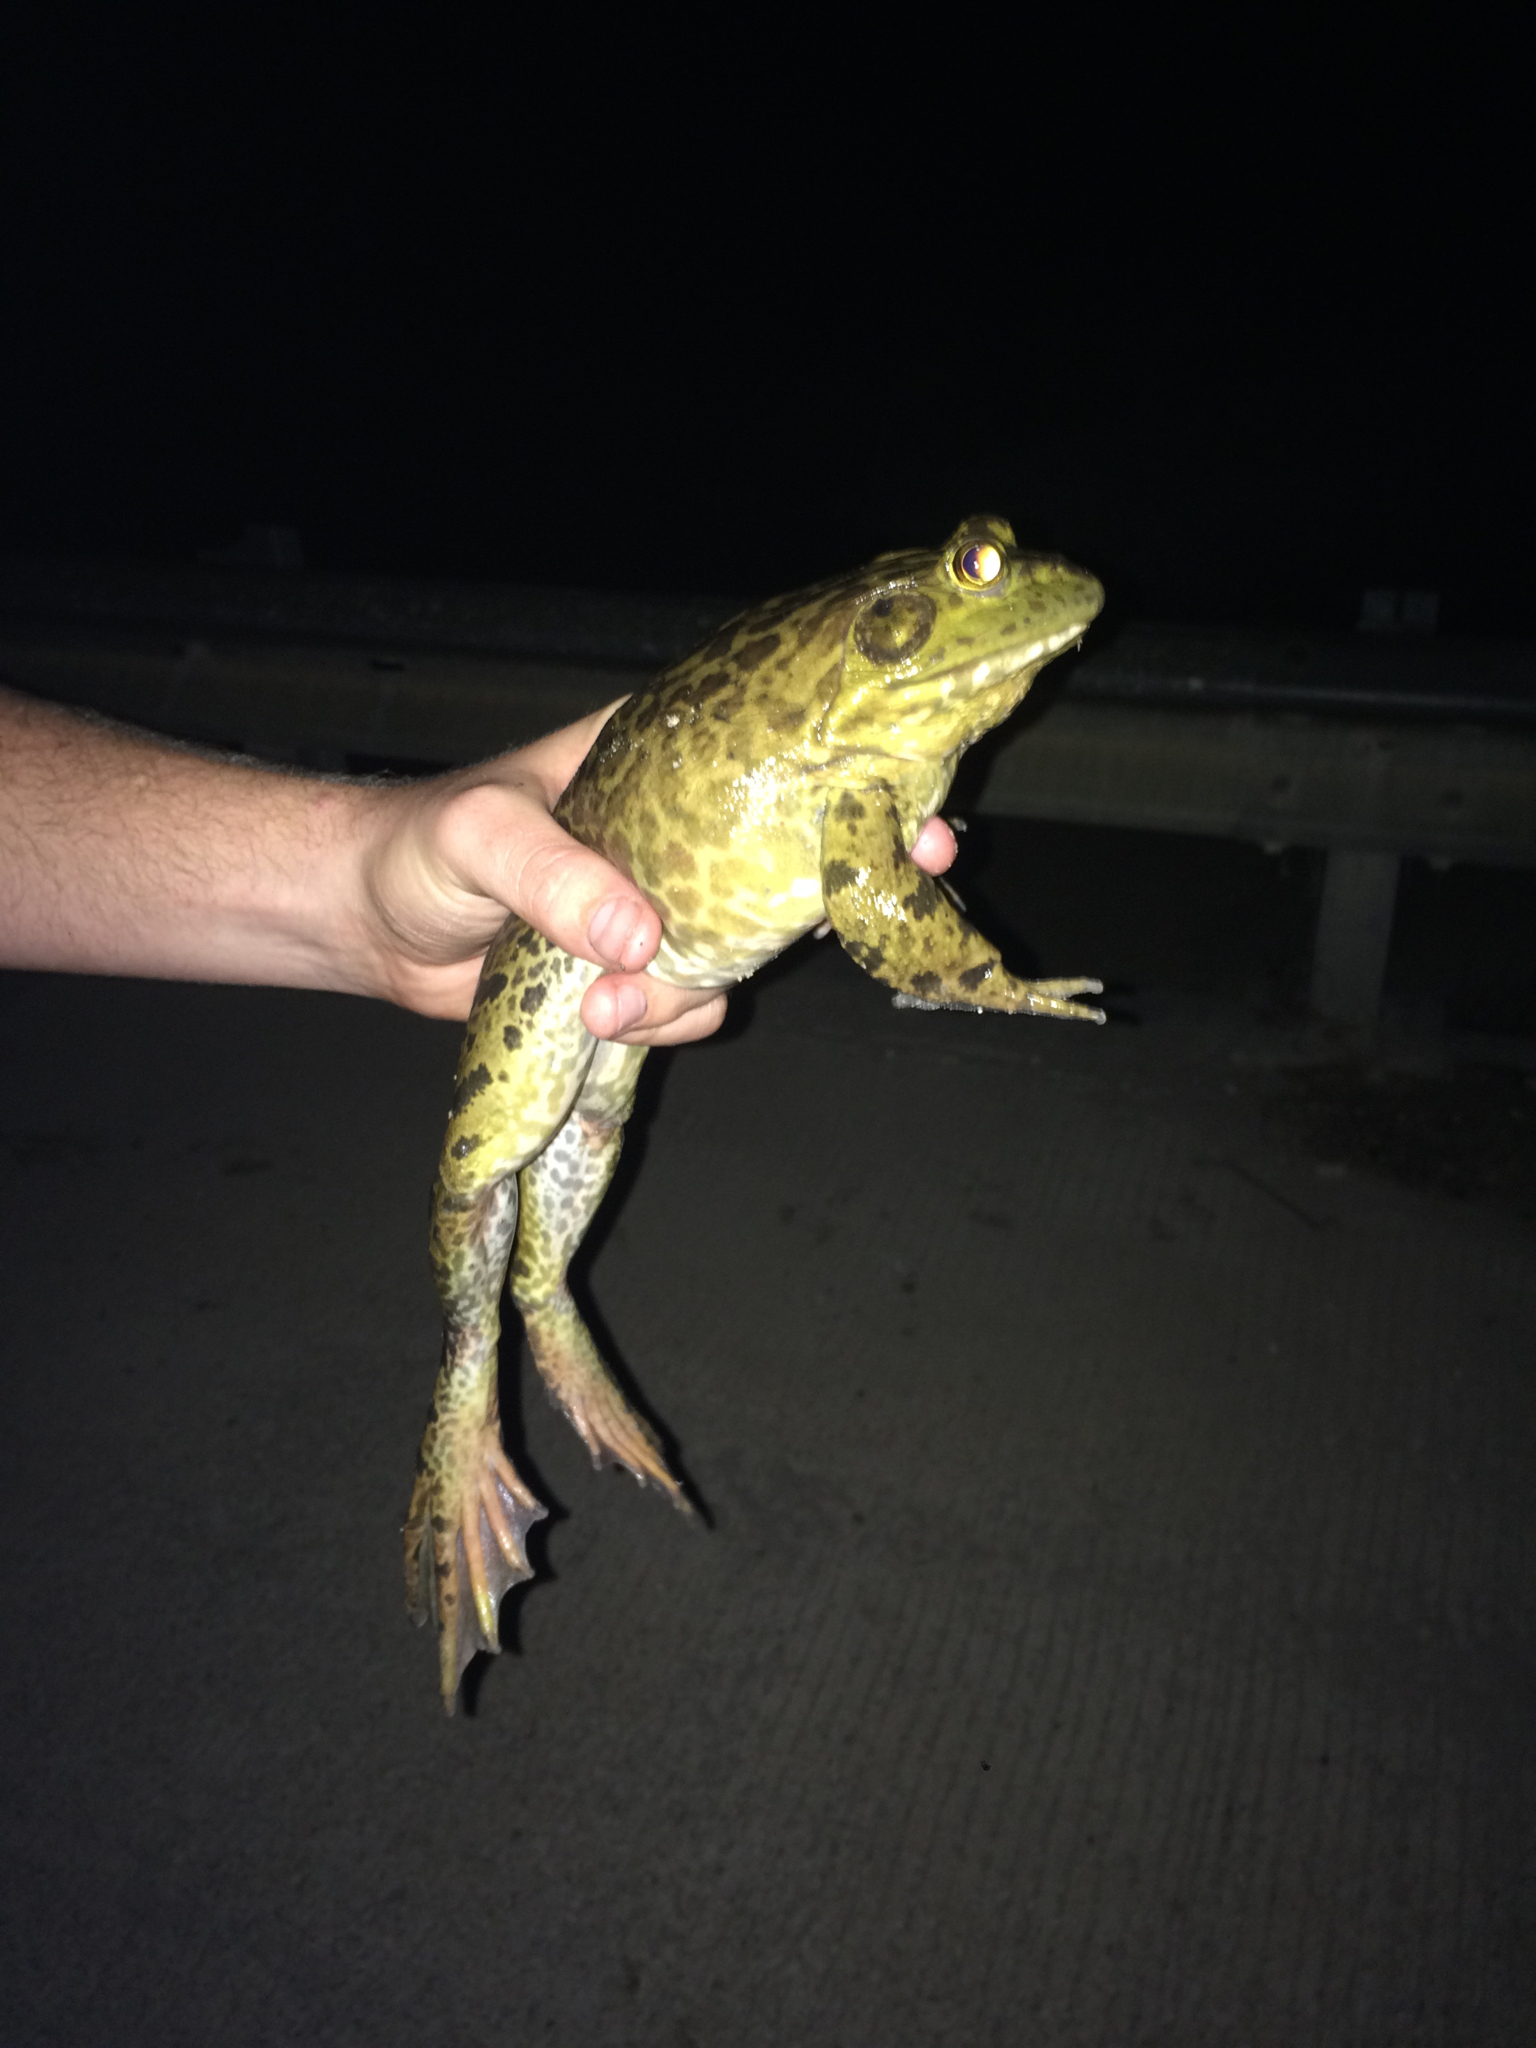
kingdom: Animalia
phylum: Chordata
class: Amphibia
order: Anura
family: Ranidae
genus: Lithobates
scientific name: Lithobates catesbeianus
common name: American bullfrog
